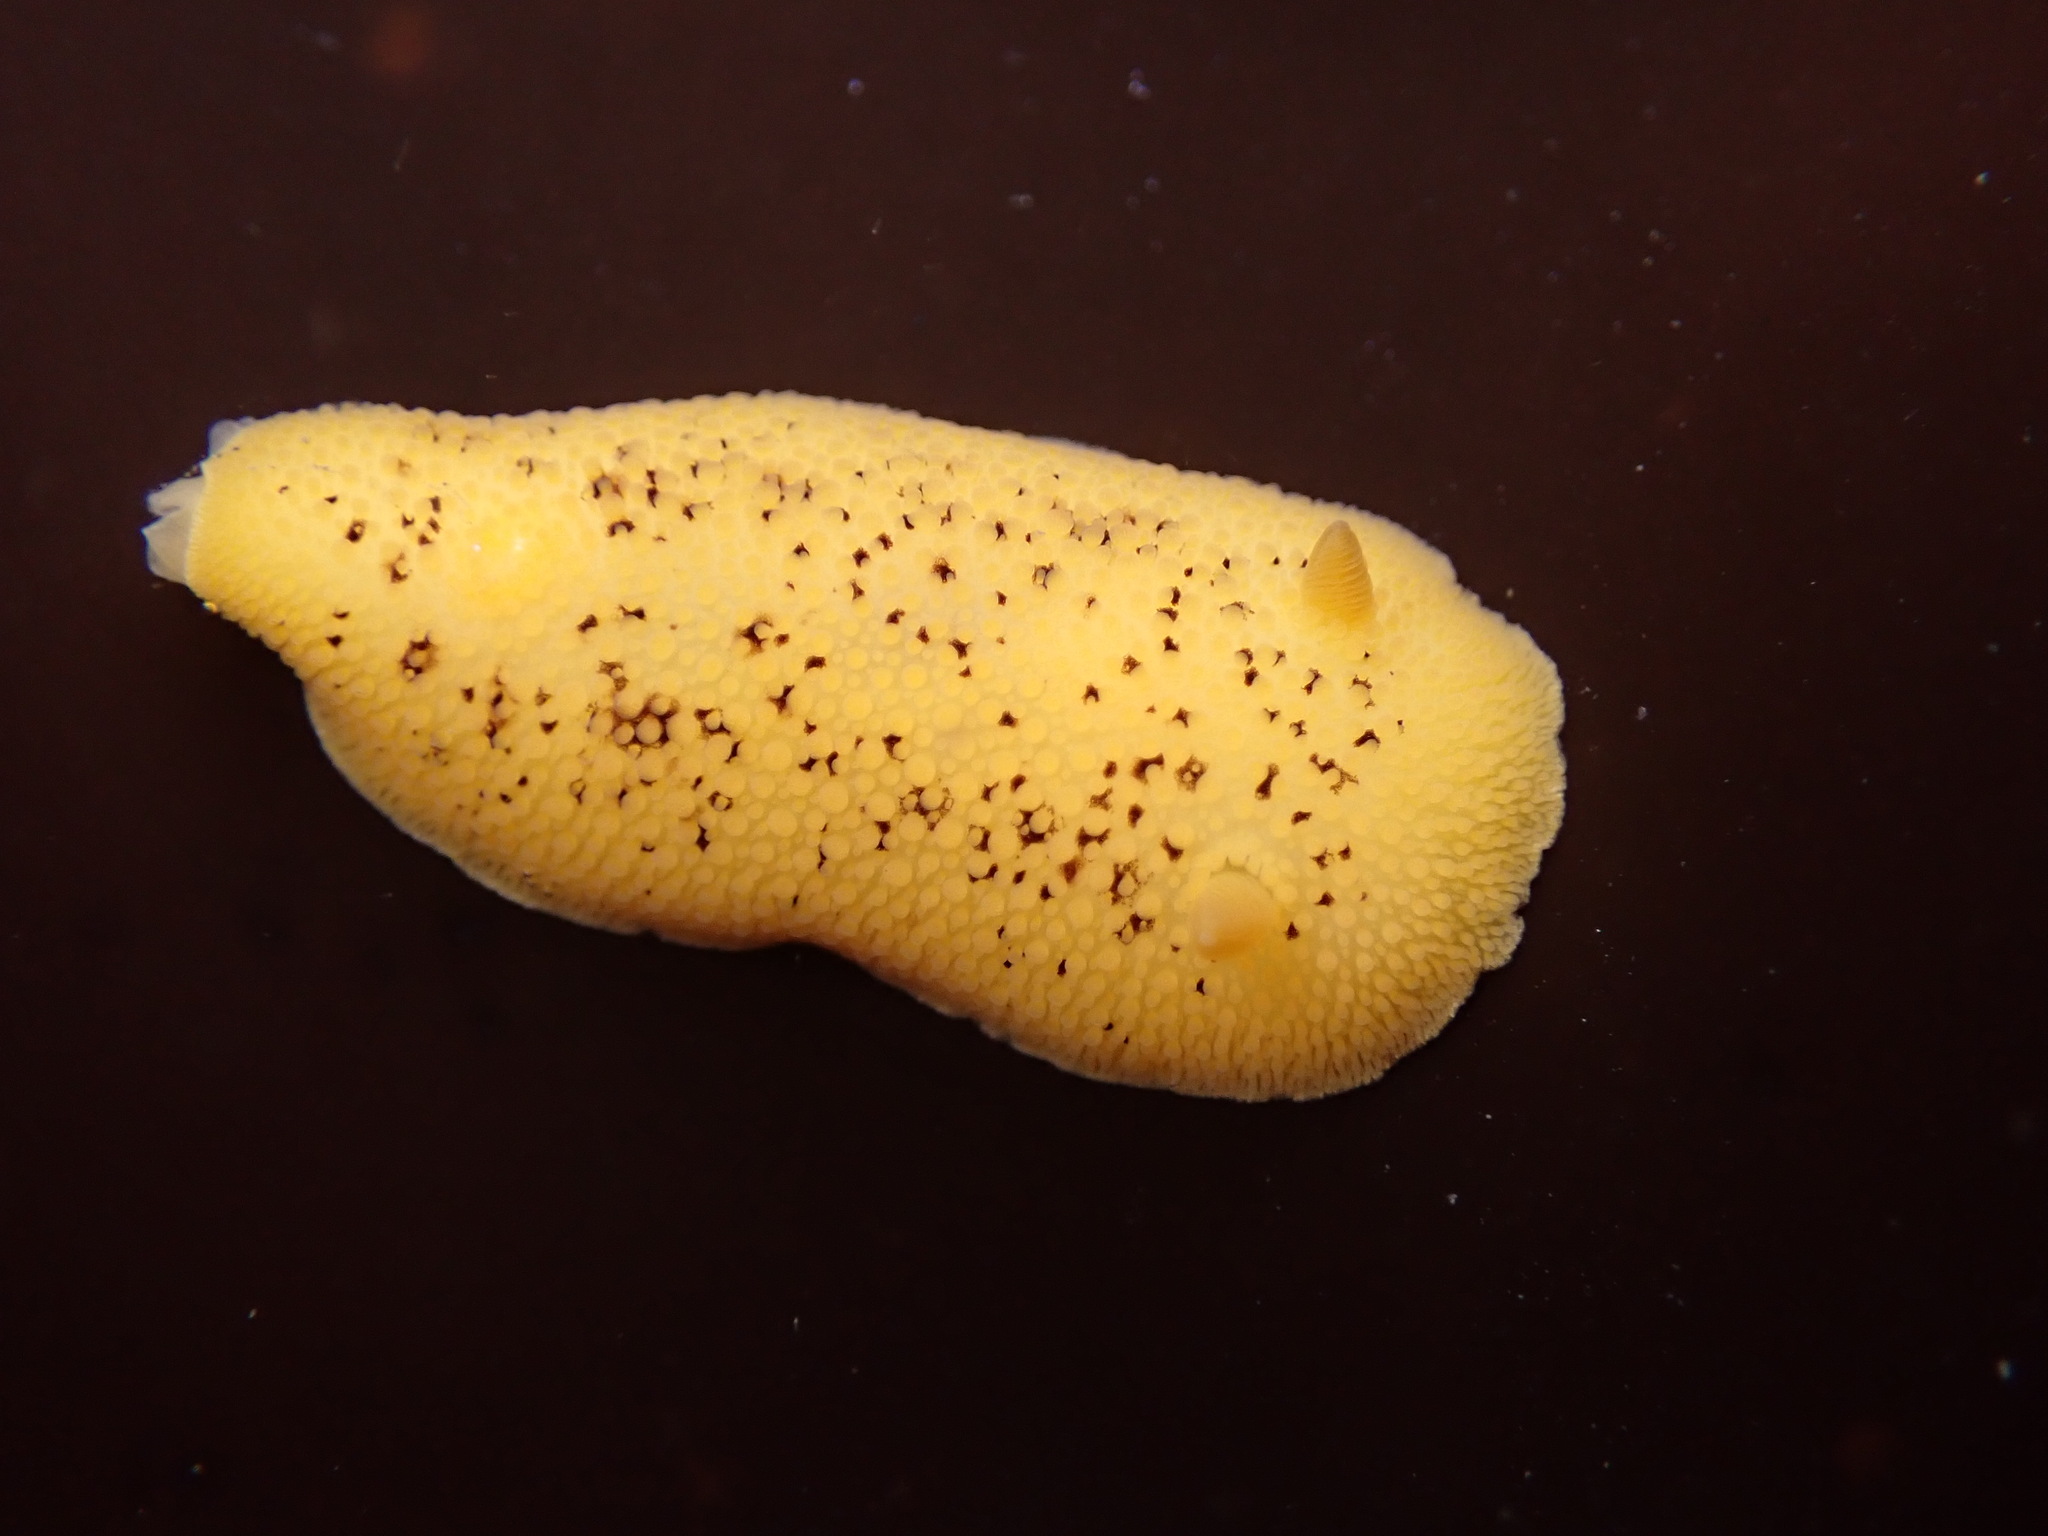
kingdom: Animalia
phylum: Mollusca
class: Gastropoda
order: Nudibranchia
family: Discodorididae
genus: Peltodoris
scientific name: Peltodoris nobilis
